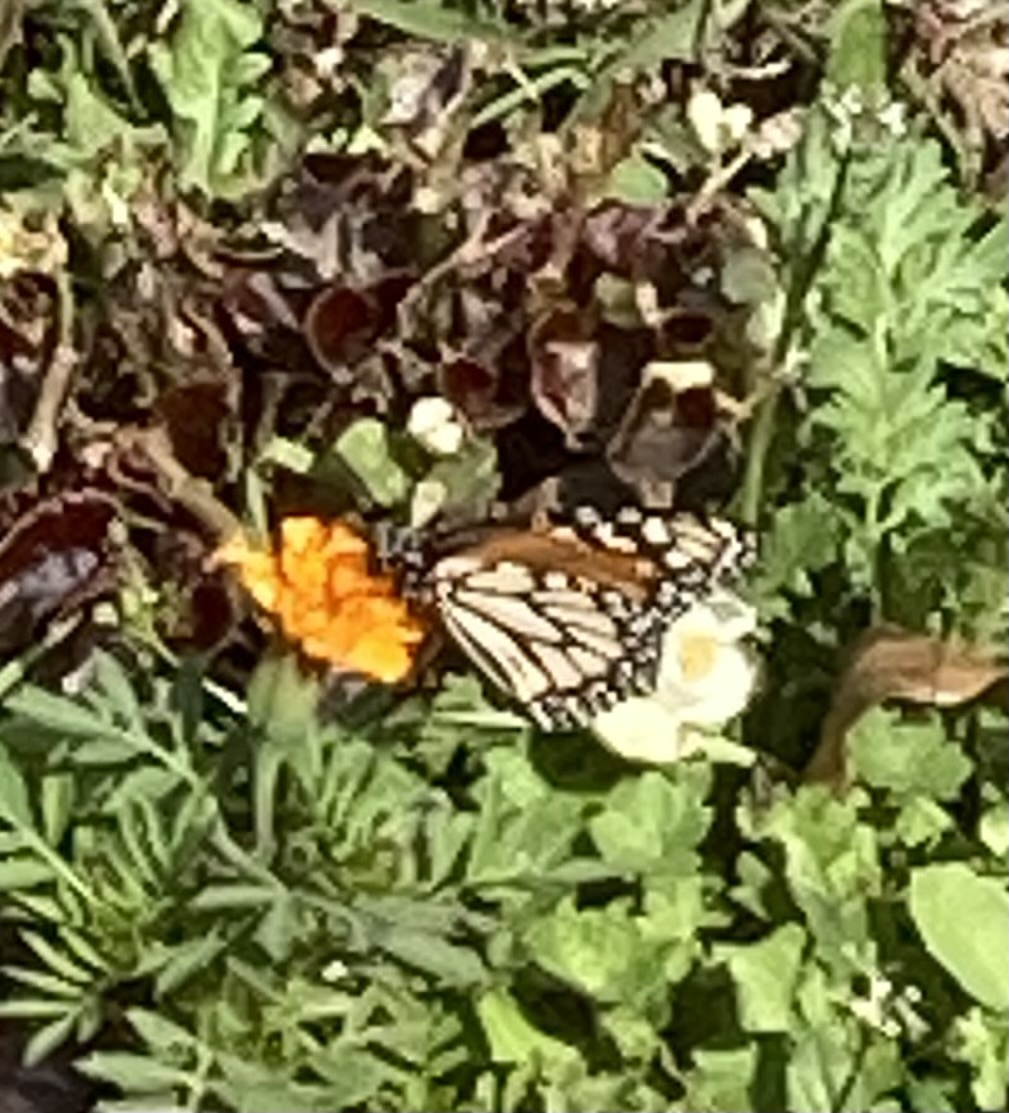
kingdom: Animalia
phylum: Arthropoda
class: Insecta
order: Lepidoptera
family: Nymphalidae
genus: Danaus
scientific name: Danaus erippus
